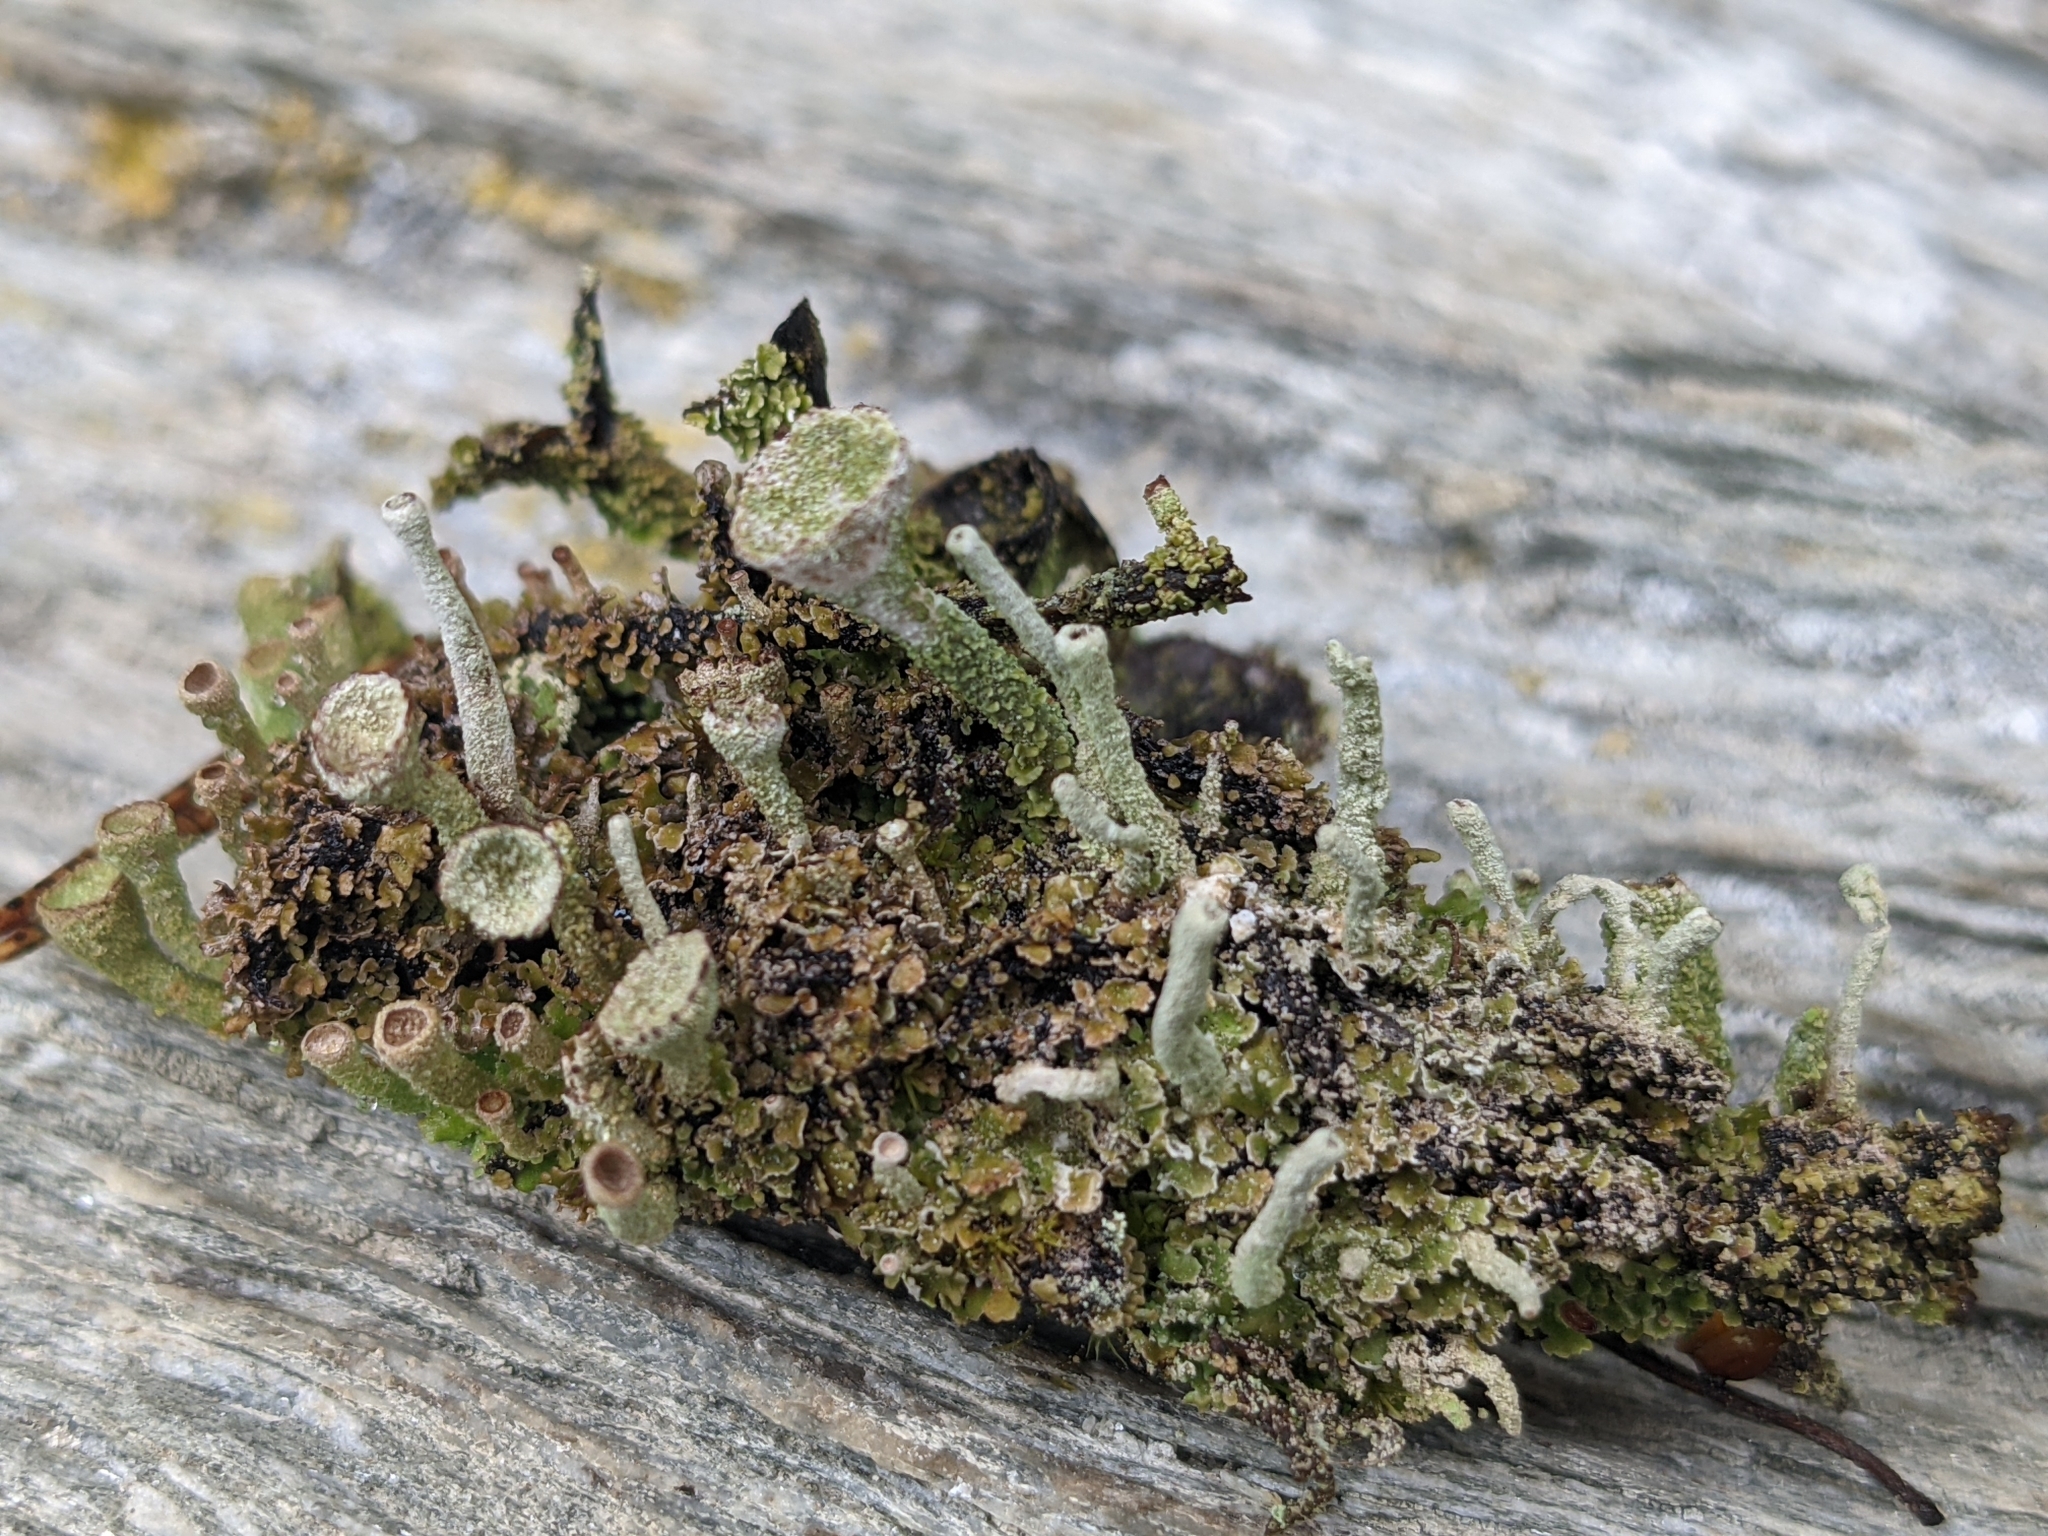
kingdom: Fungi
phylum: Ascomycota
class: Lecanoromycetes
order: Lecanorales
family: Cladoniaceae
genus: Cladonia
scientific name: Cladonia fimbriata
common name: Powdered trumpet lichen
